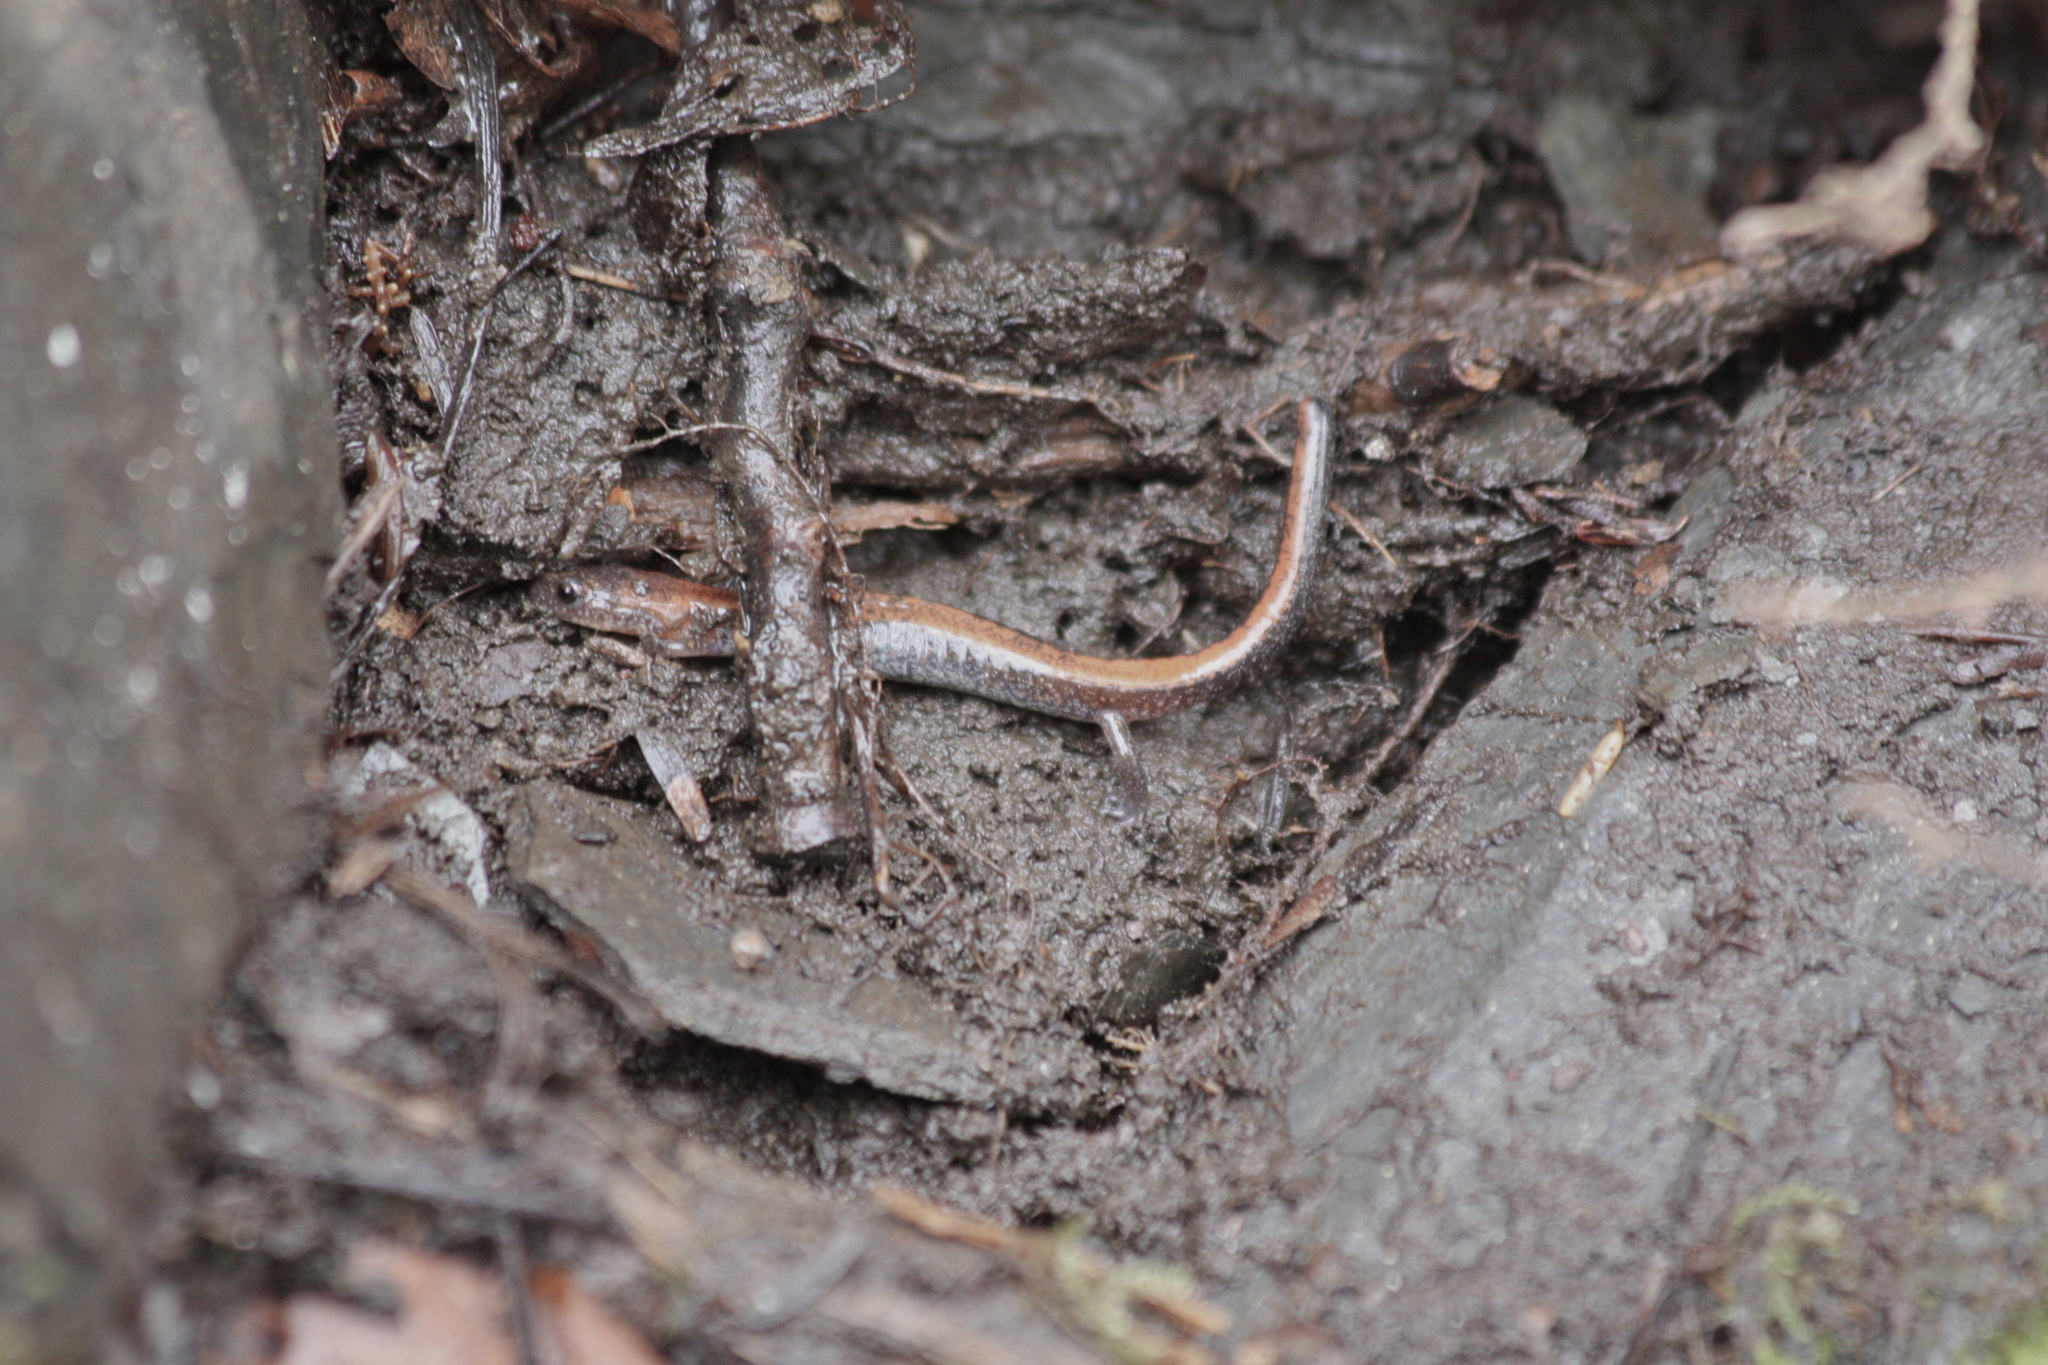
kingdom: Animalia
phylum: Chordata
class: Amphibia
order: Caudata
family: Plethodontidae
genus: Plethodon
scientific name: Plethodon cinereus
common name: Redback salamander
